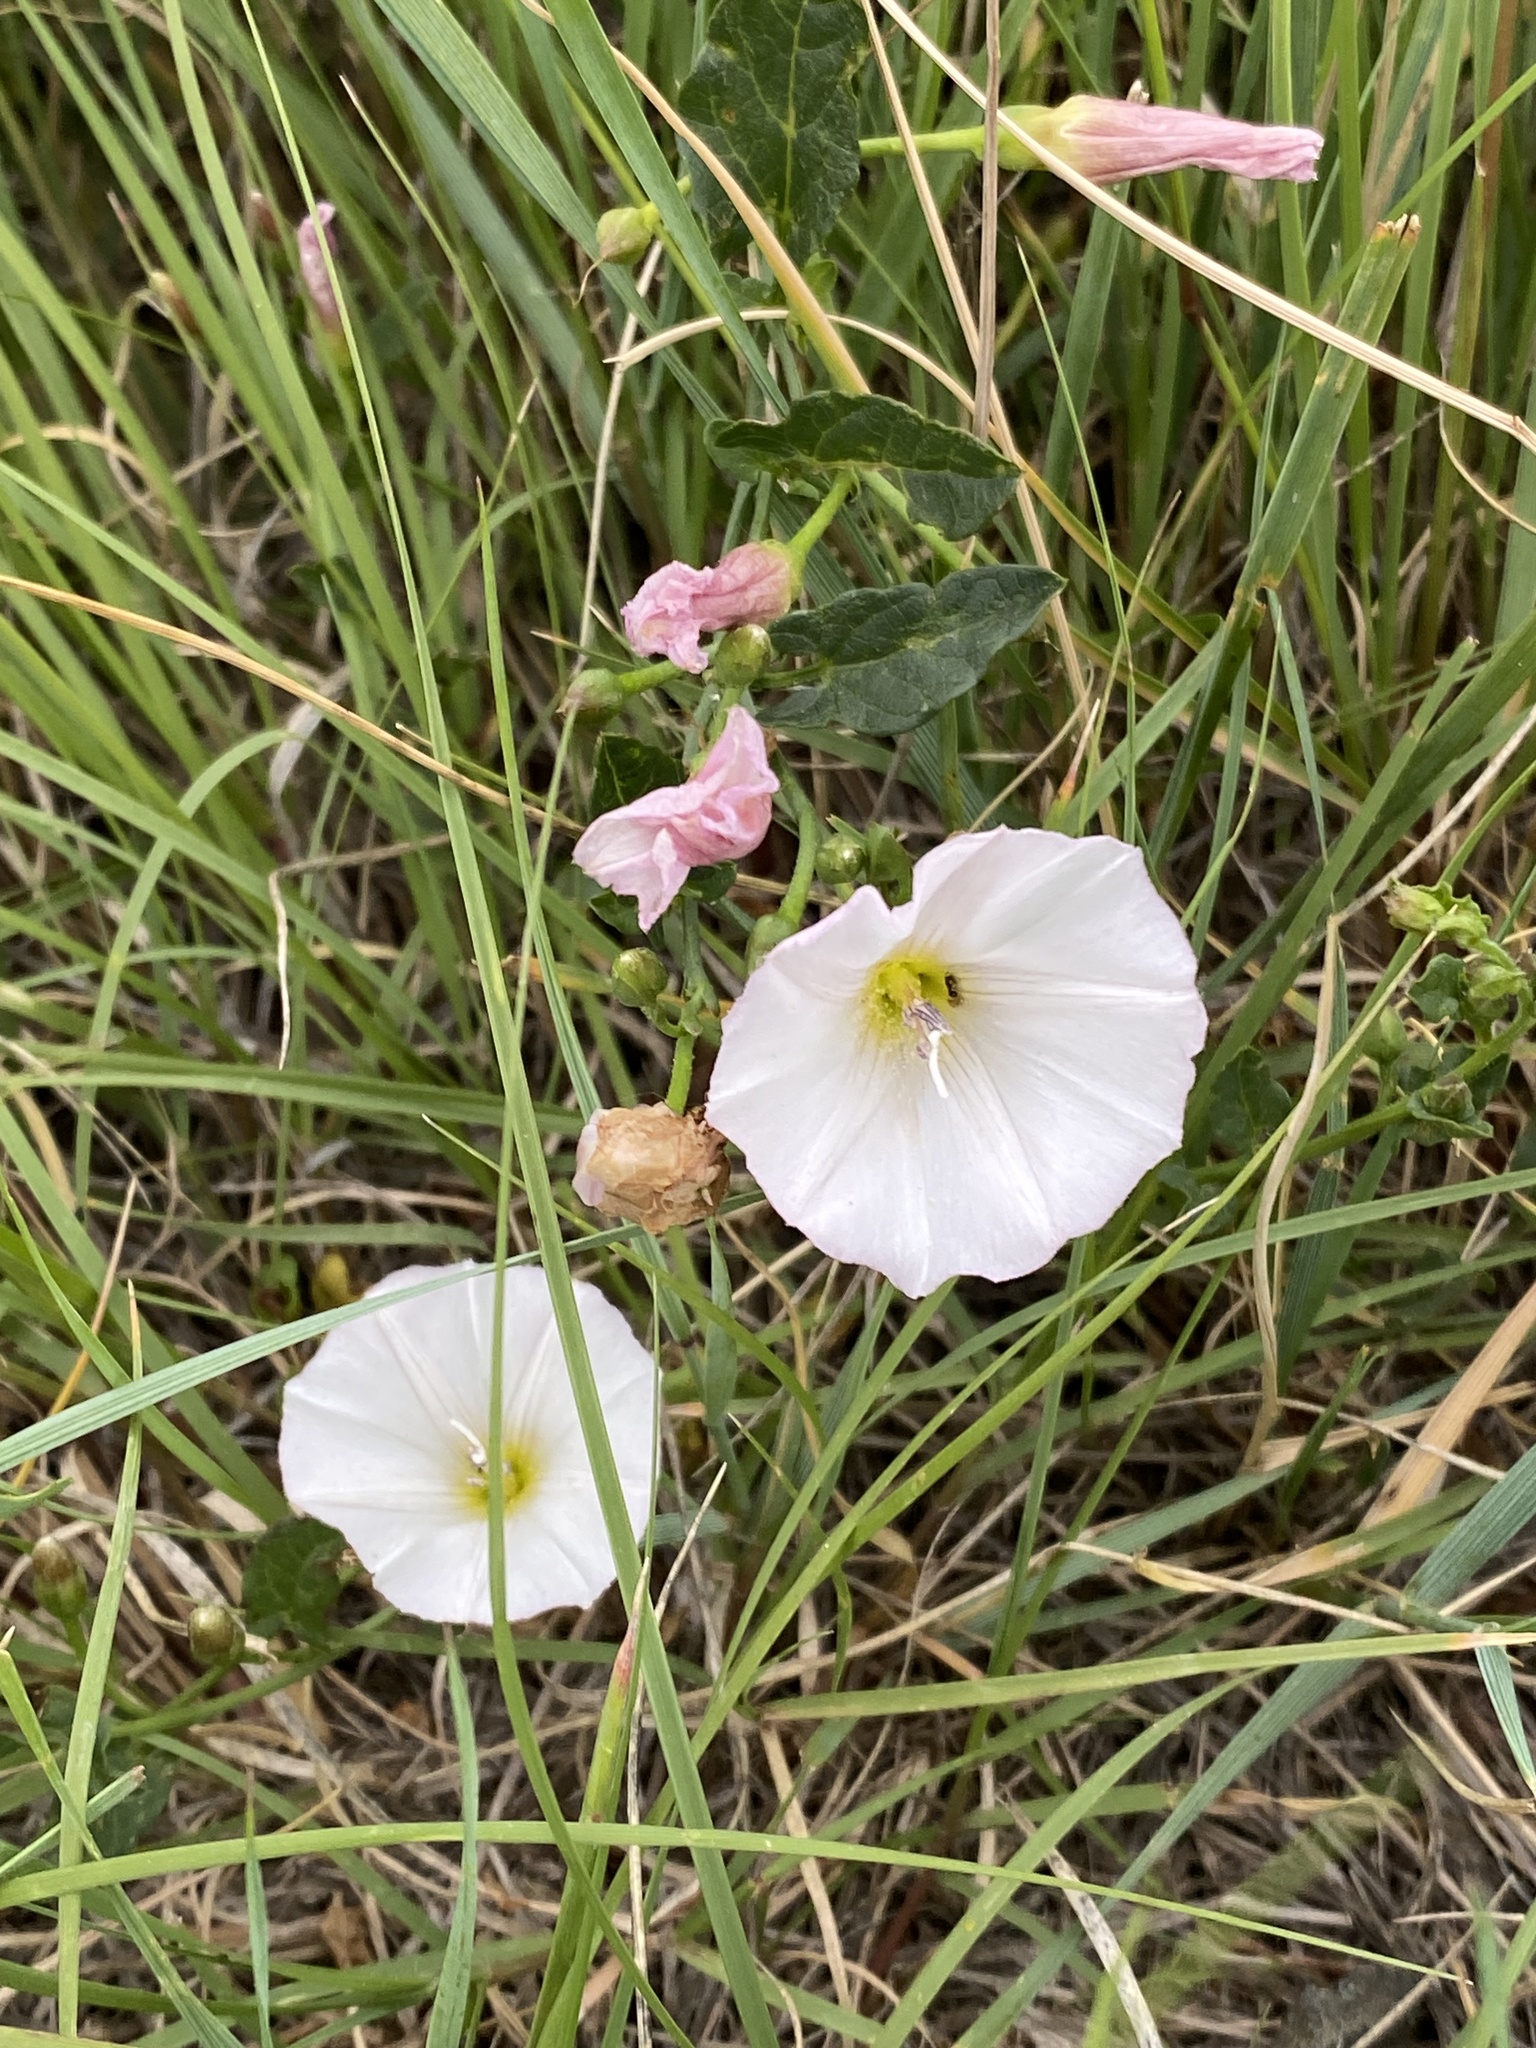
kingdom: Plantae
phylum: Tracheophyta
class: Magnoliopsida
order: Solanales
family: Convolvulaceae
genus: Convolvulus
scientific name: Convolvulus arvensis
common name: Field bindweed
